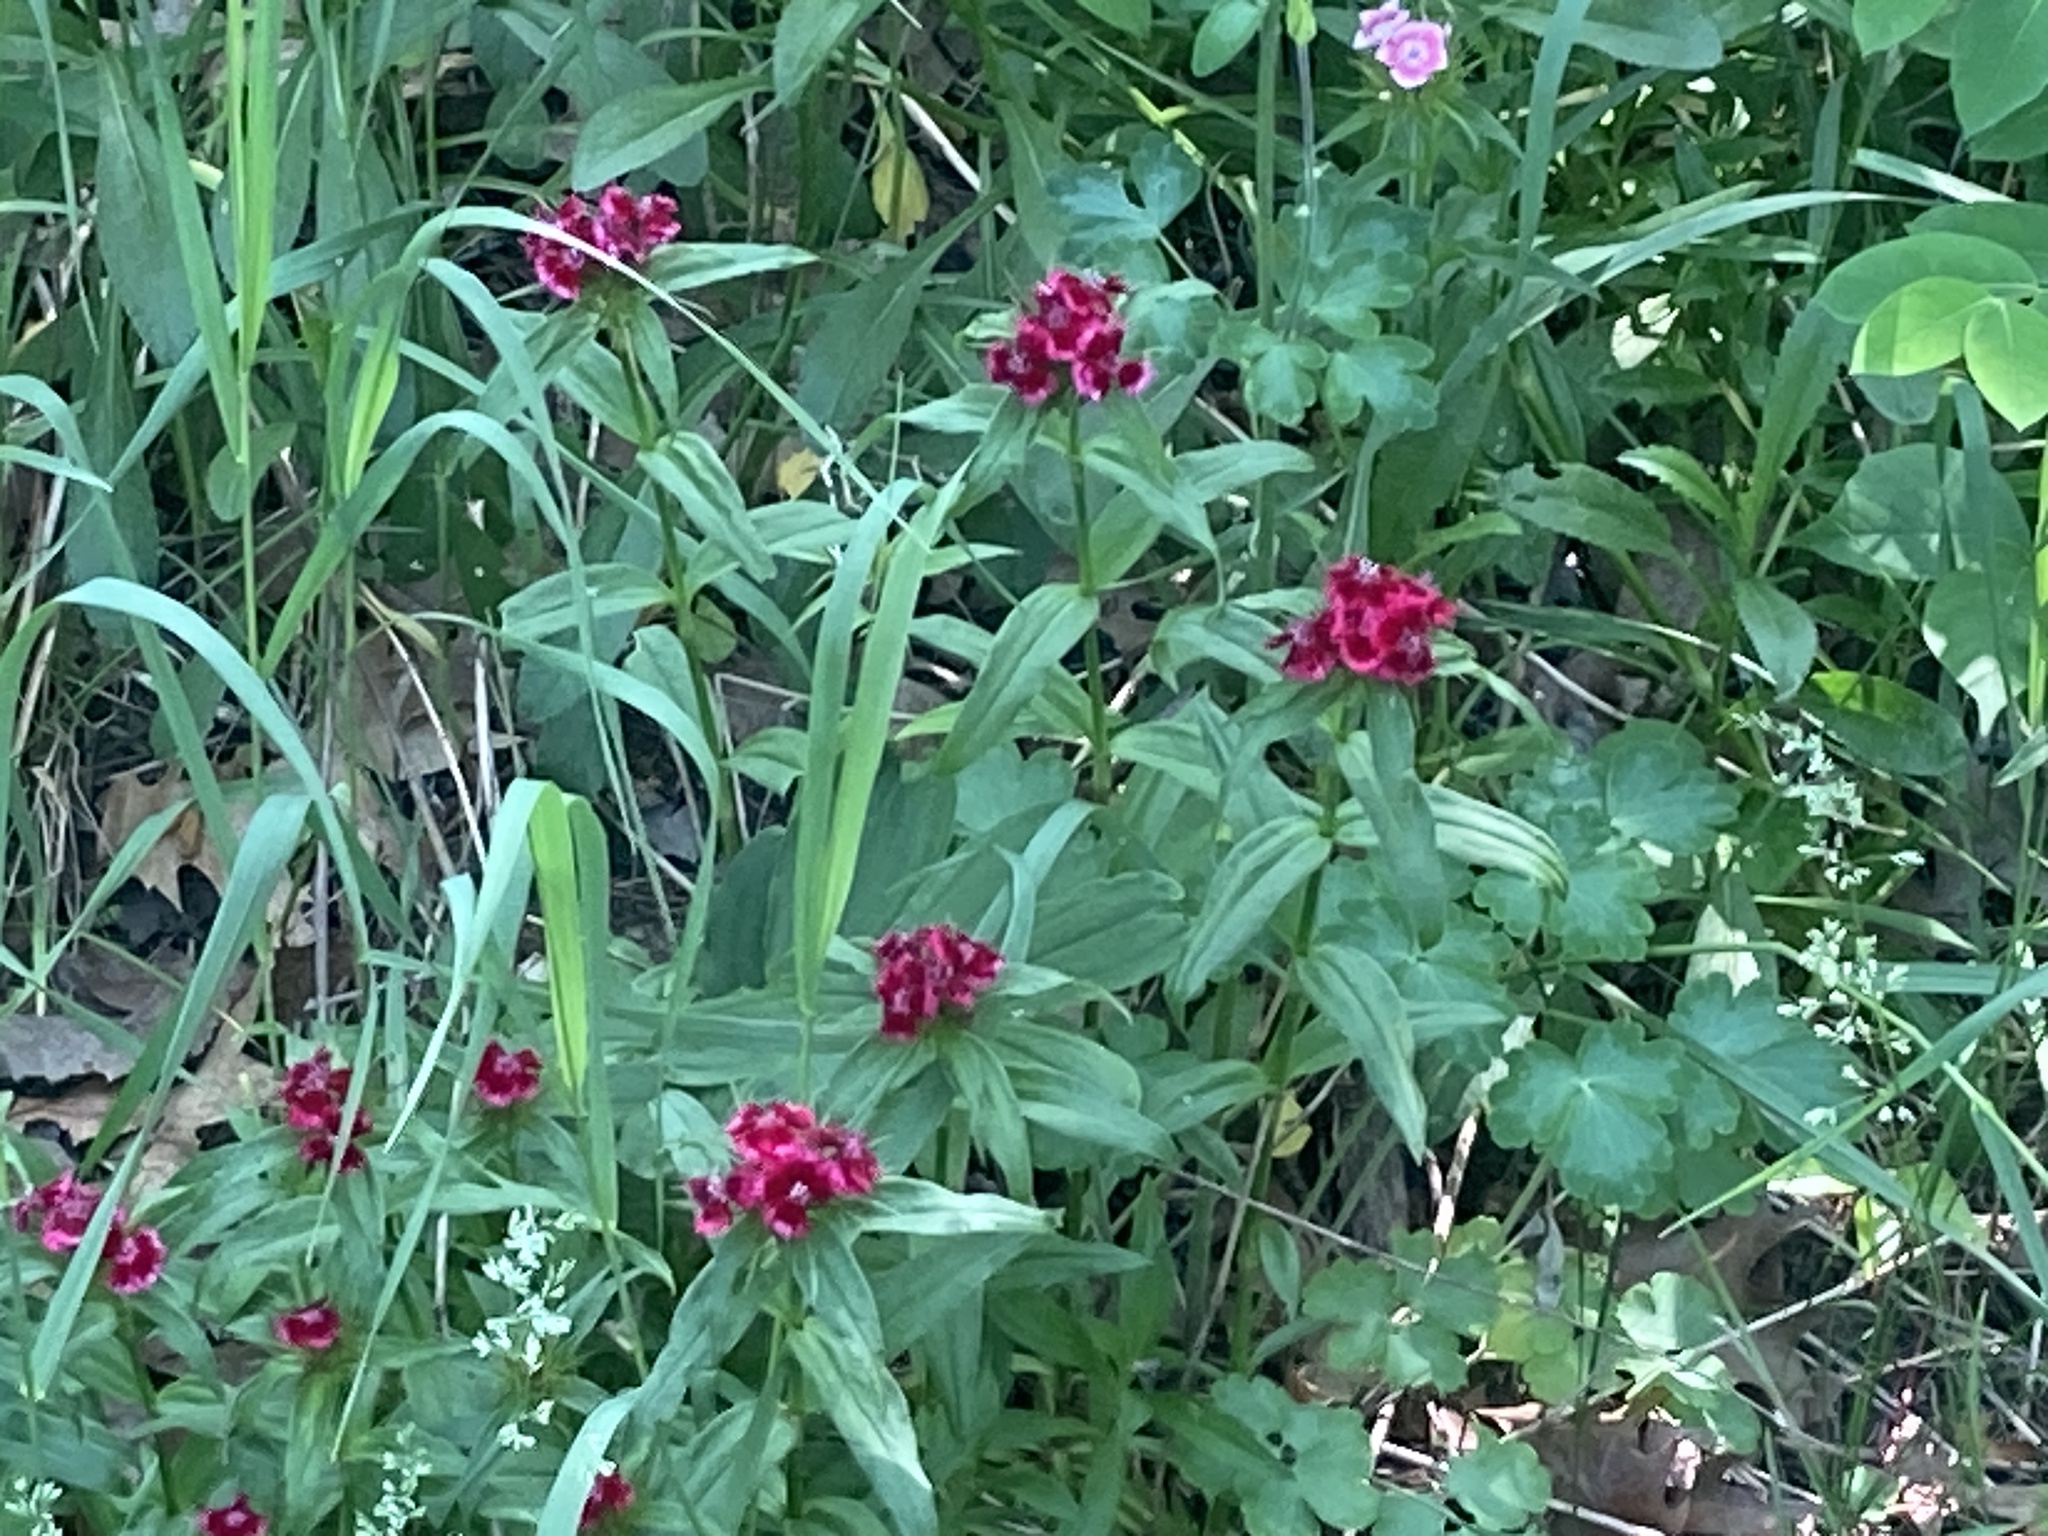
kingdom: Plantae
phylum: Tracheophyta
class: Magnoliopsida
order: Caryophyllales
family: Caryophyllaceae
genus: Dianthus
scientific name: Dianthus barbatus
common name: Sweet-william
